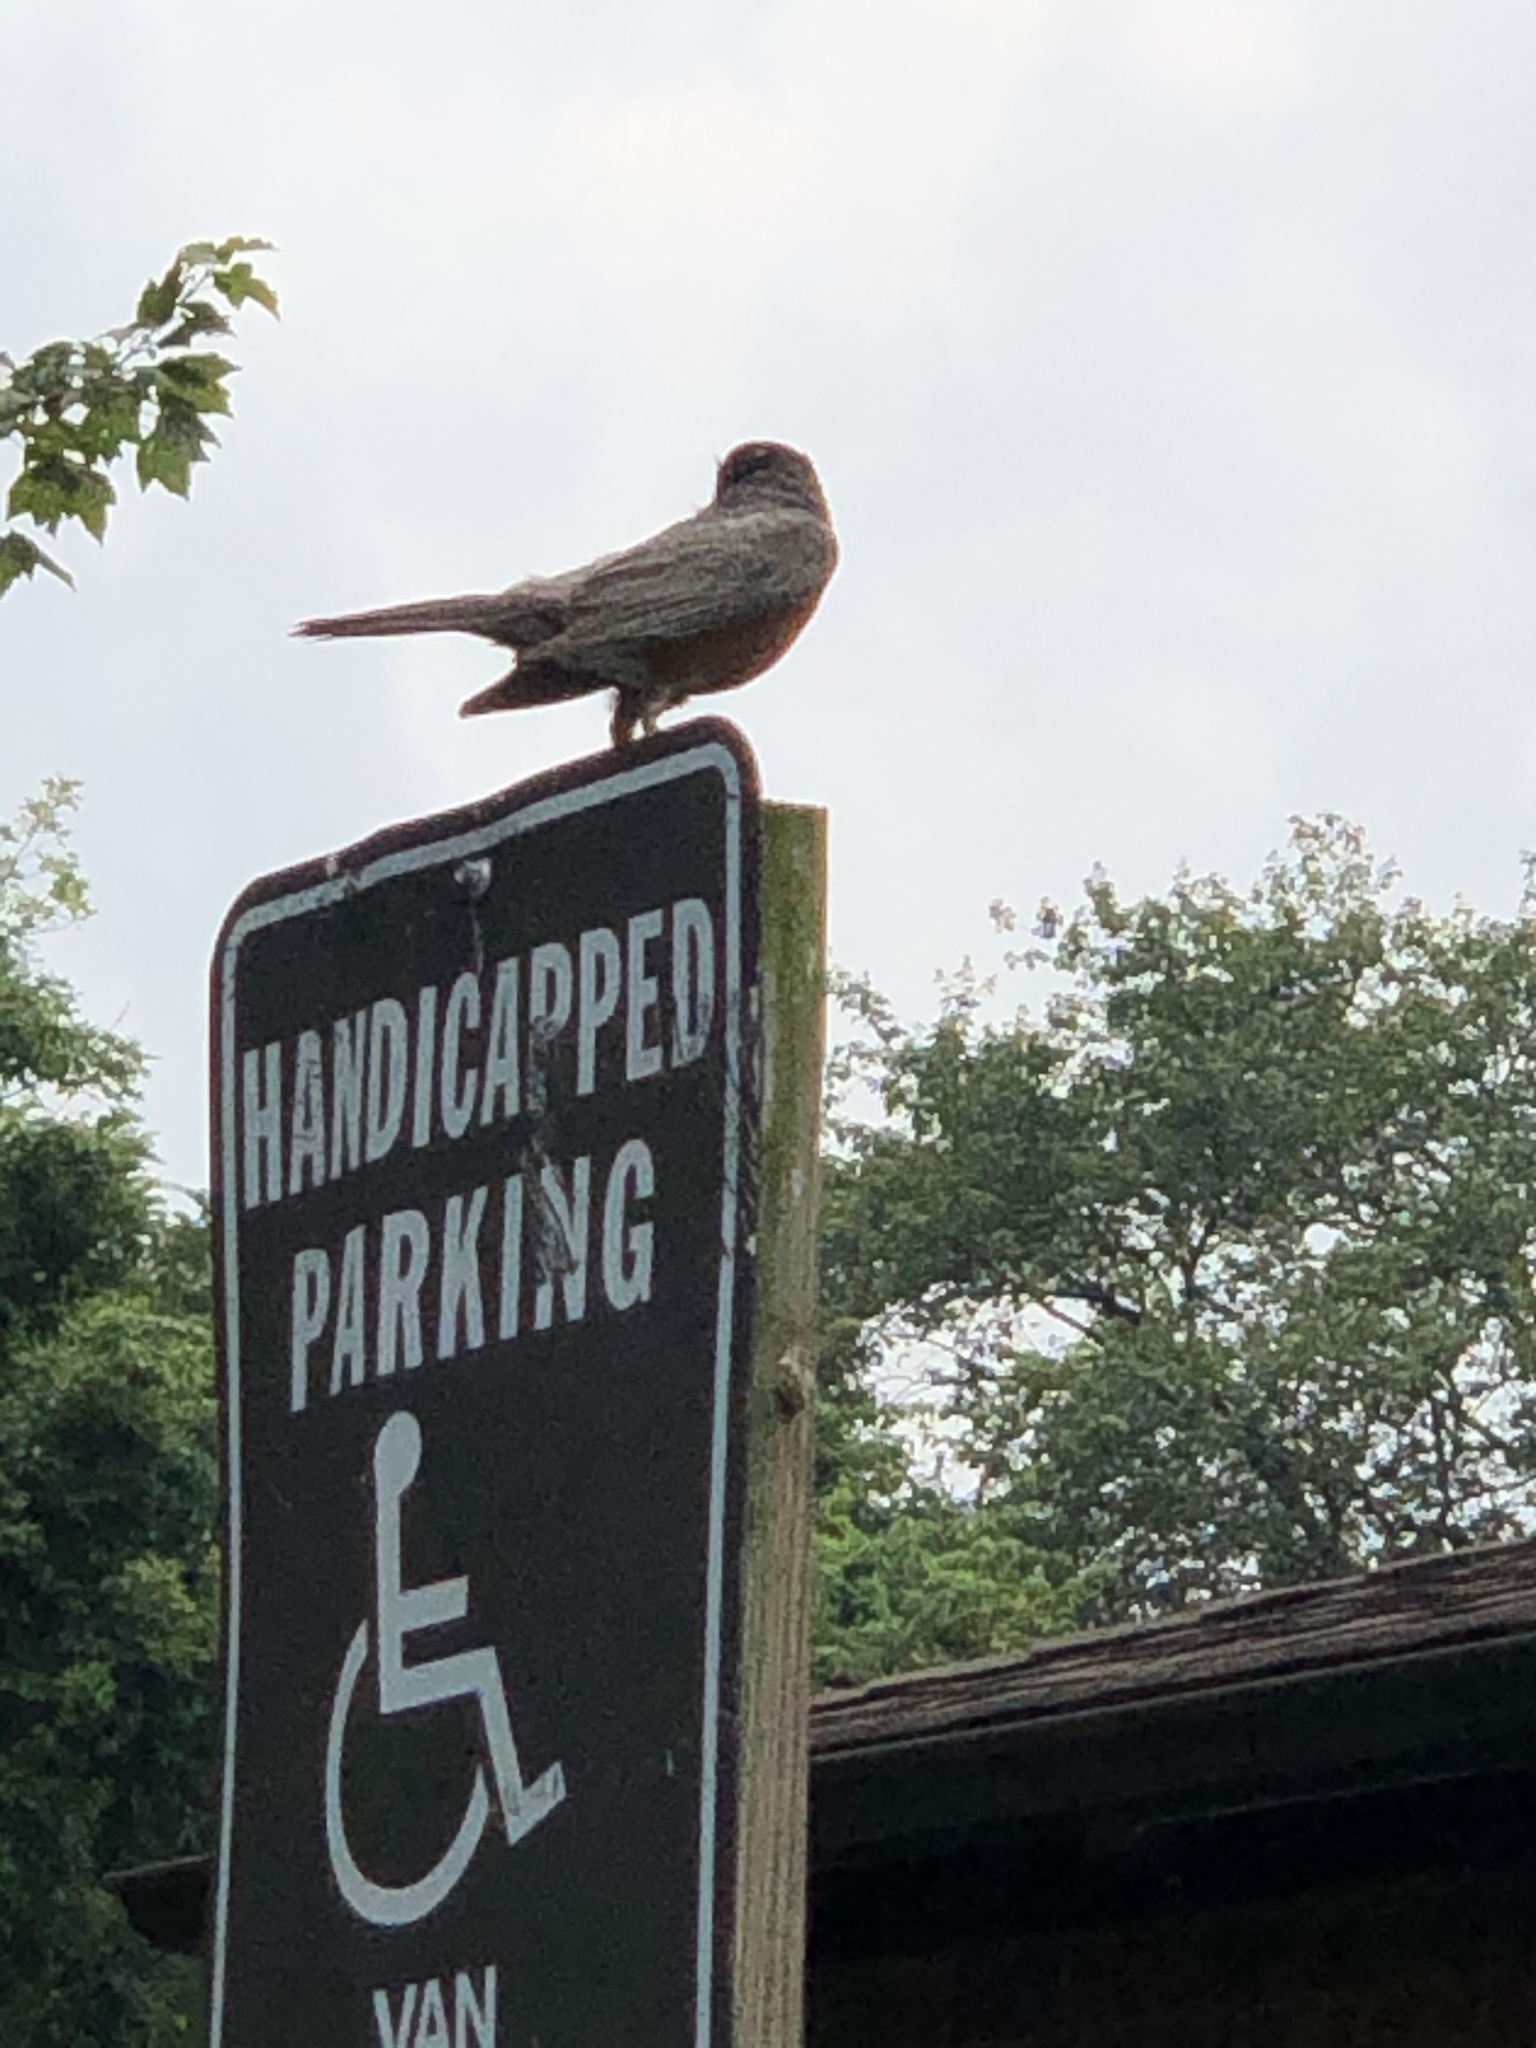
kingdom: Animalia
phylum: Chordata
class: Aves
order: Passeriformes
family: Turdidae
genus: Turdus
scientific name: Turdus migratorius
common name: American robin
